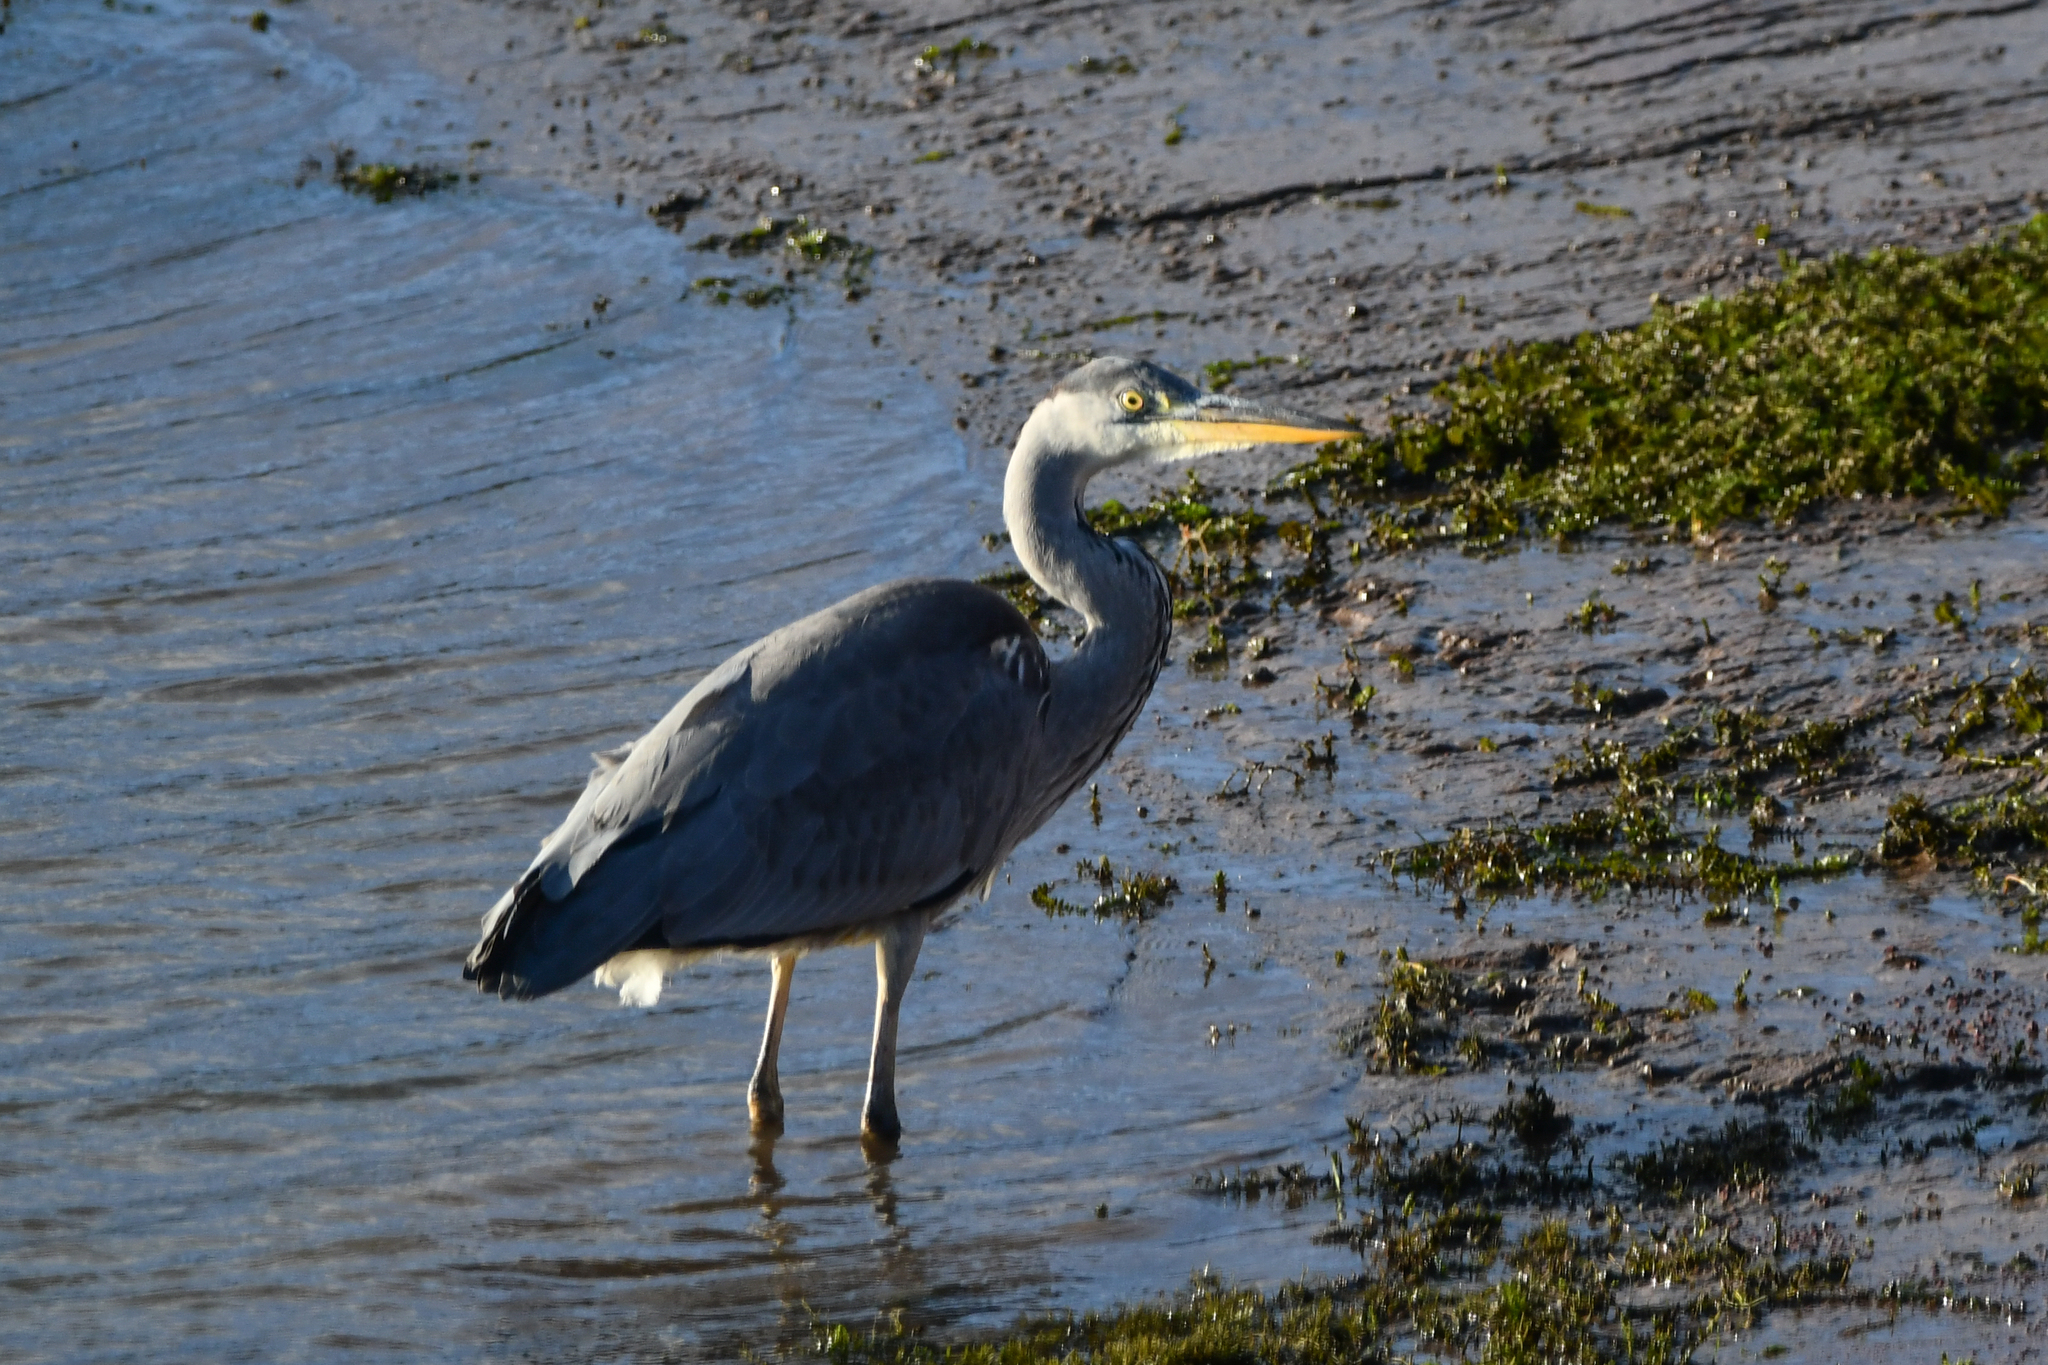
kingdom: Animalia
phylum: Chordata
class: Aves
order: Pelecaniformes
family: Ardeidae
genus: Ardea
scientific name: Ardea cinerea
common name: Grey heron
